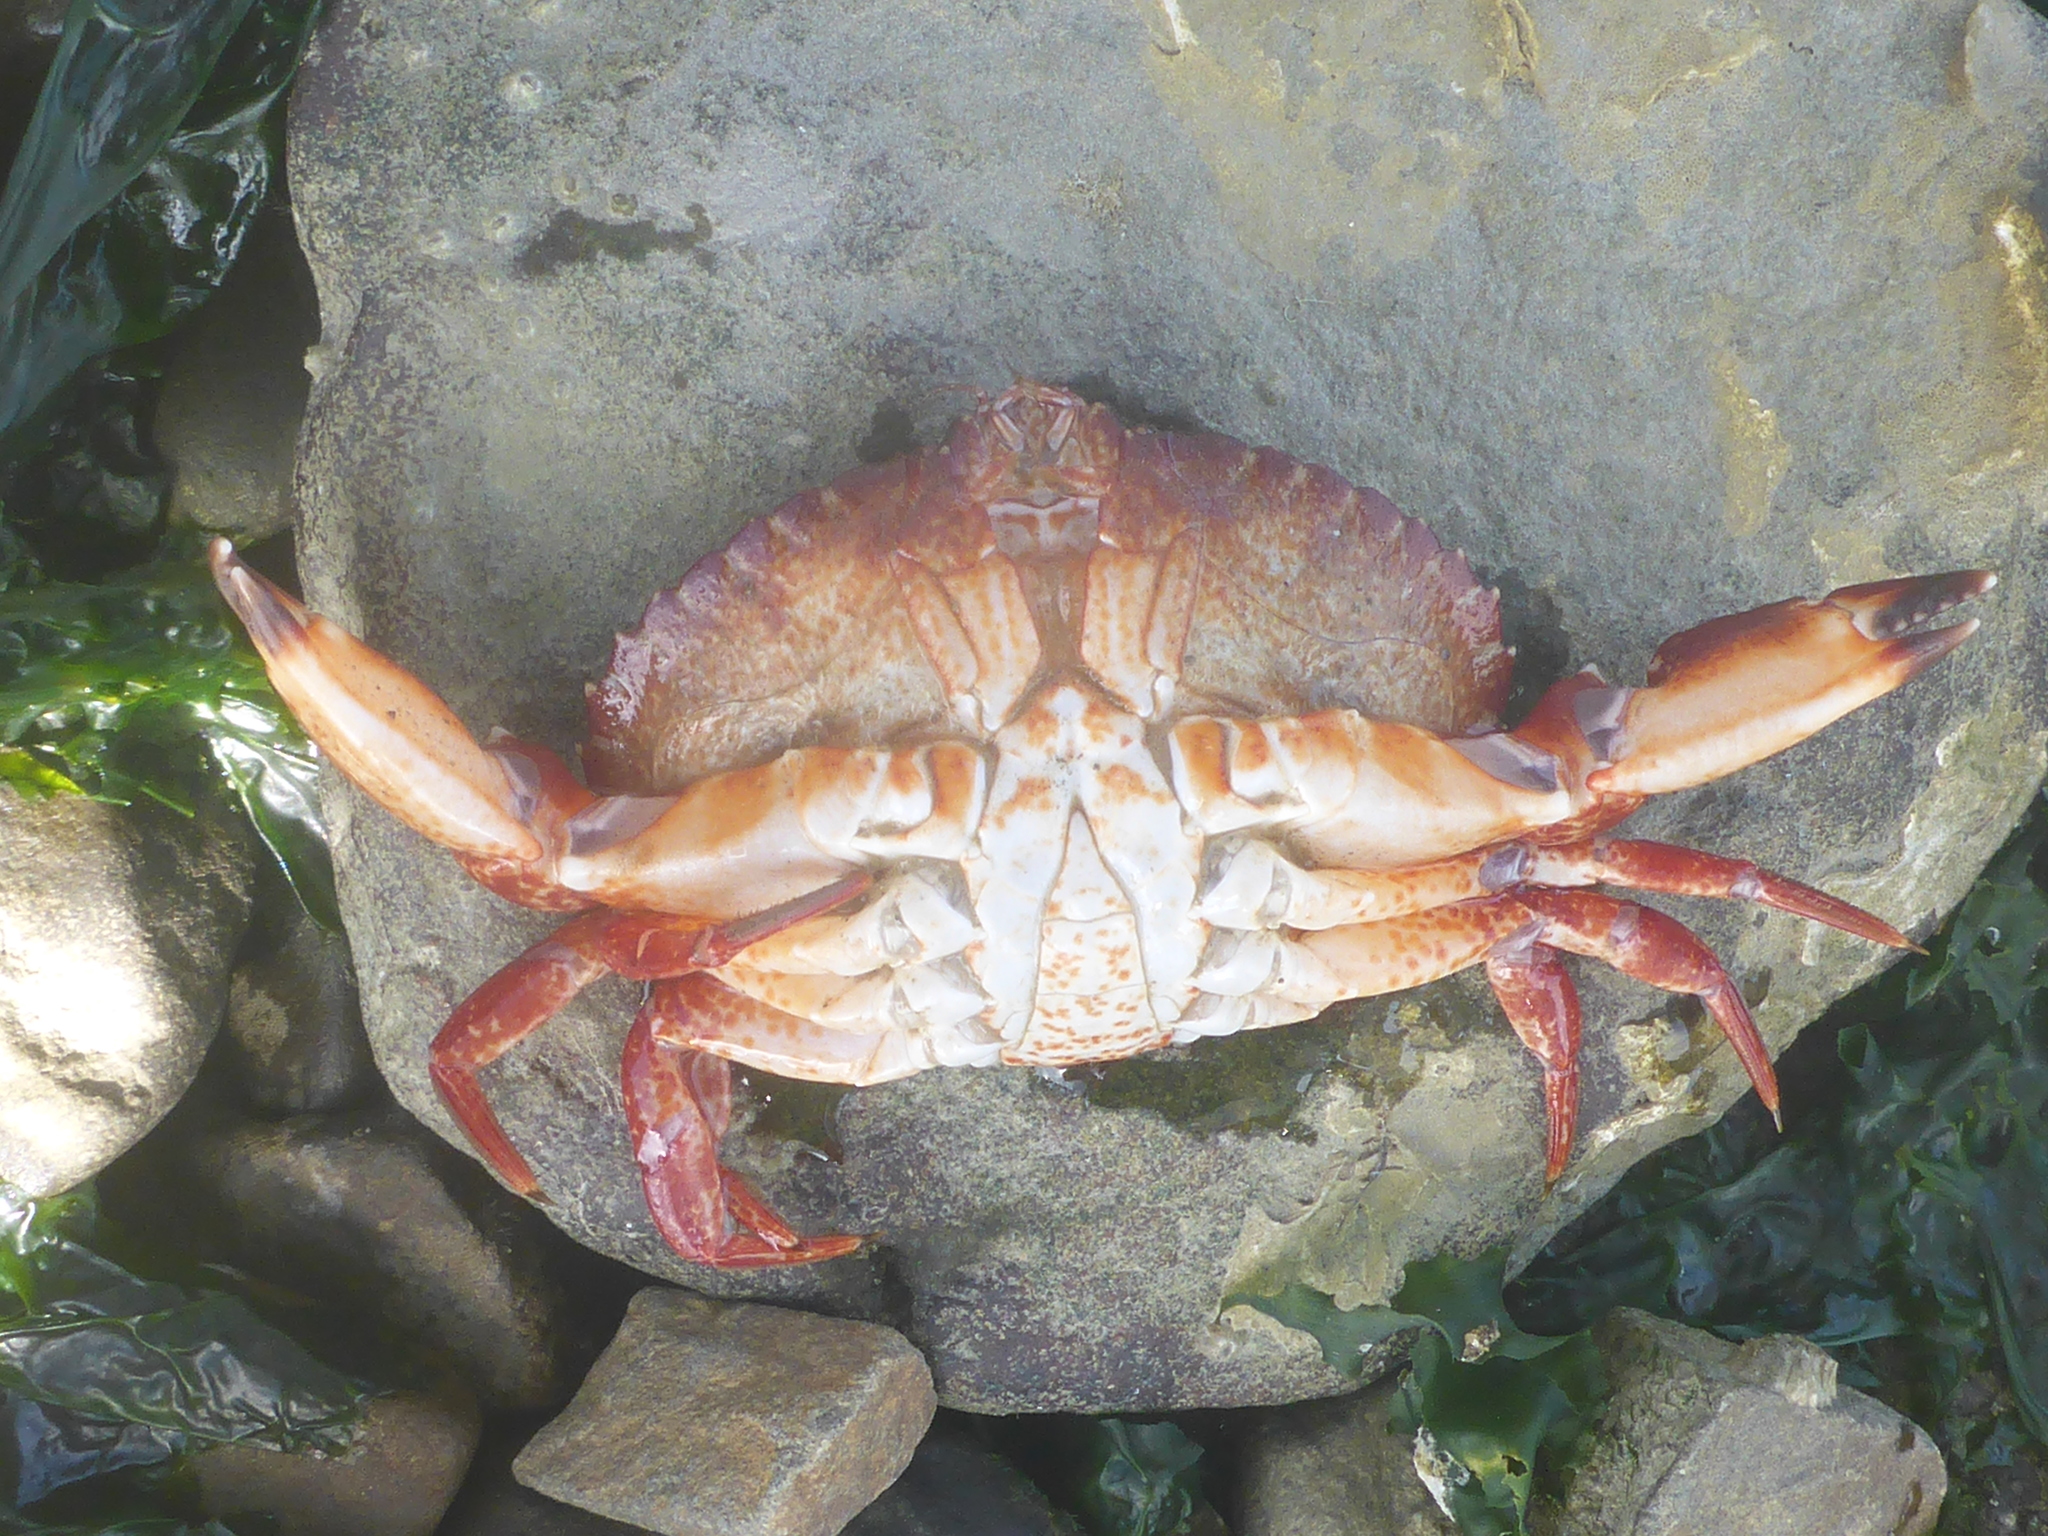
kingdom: Animalia
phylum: Arthropoda
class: Malacostraca
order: Decapoda
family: Cancridae
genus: Cancer
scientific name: Cancer productus
